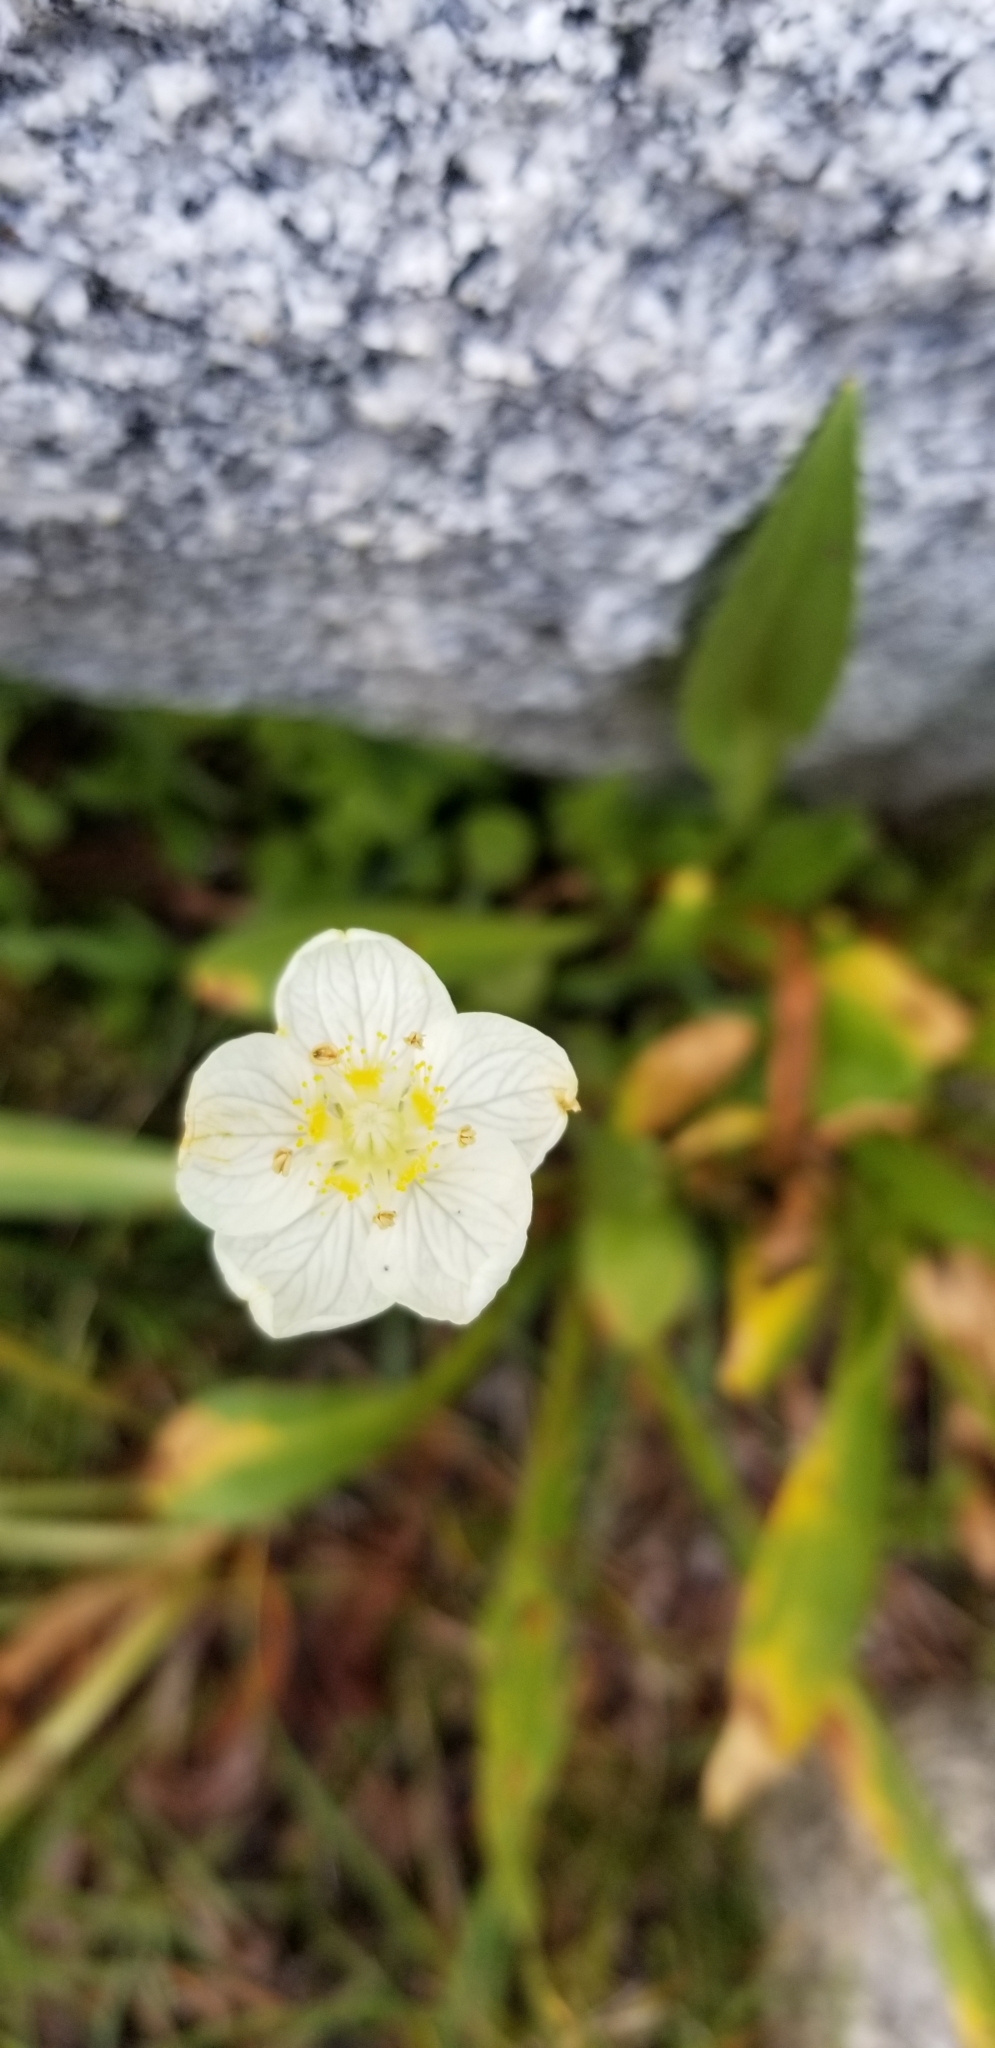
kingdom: Plantae
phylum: Tracheophyta
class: Magnoliopsida
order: Celastrales
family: Parnassiaceae
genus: Parnassia
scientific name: Parnassia palustris
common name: Grass-of-parnassus
